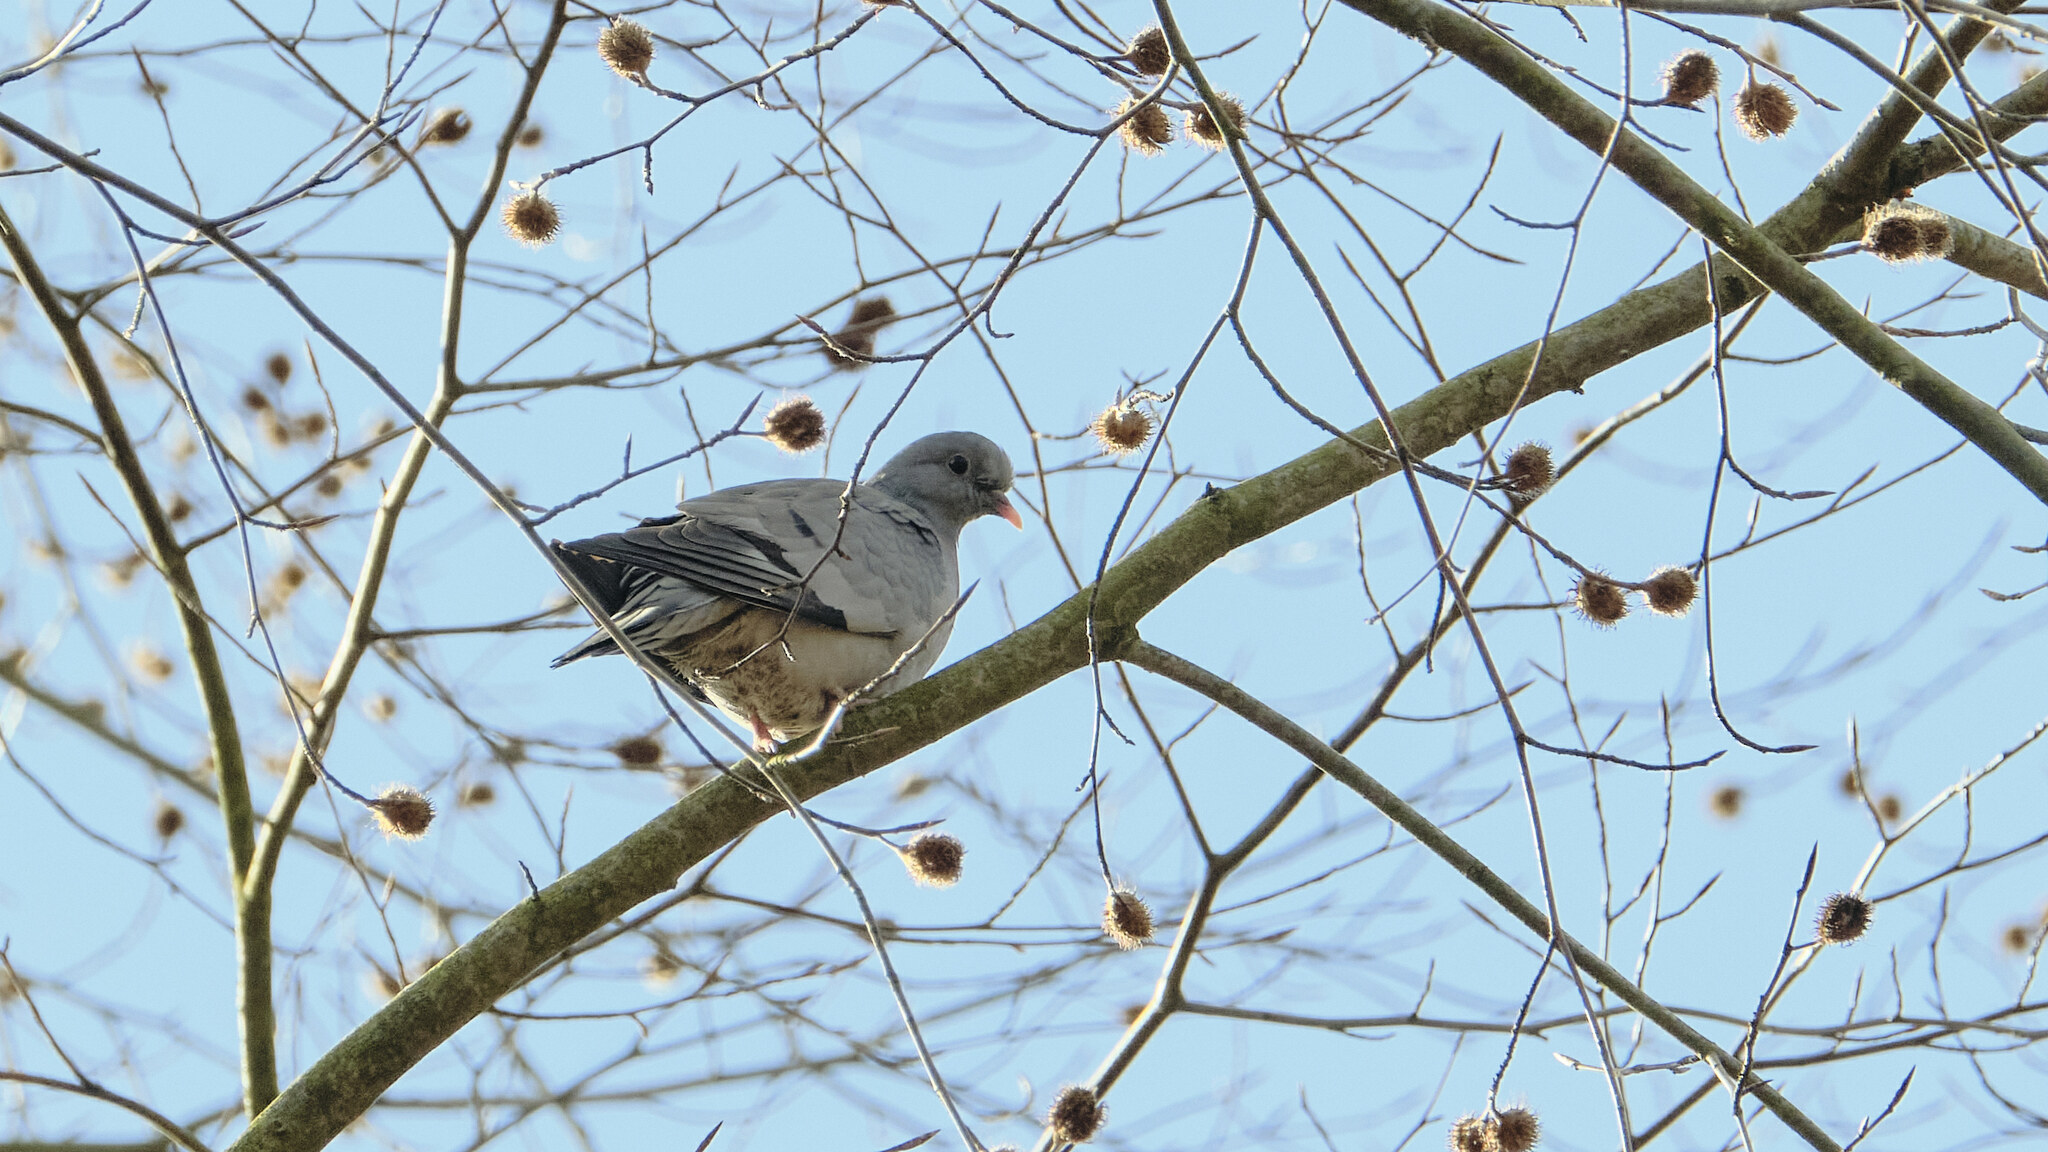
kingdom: Animalia
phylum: Chordata
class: Aves
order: Columbiformes
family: Columbidae
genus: Columba
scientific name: Columba oenas
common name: Stock dove
